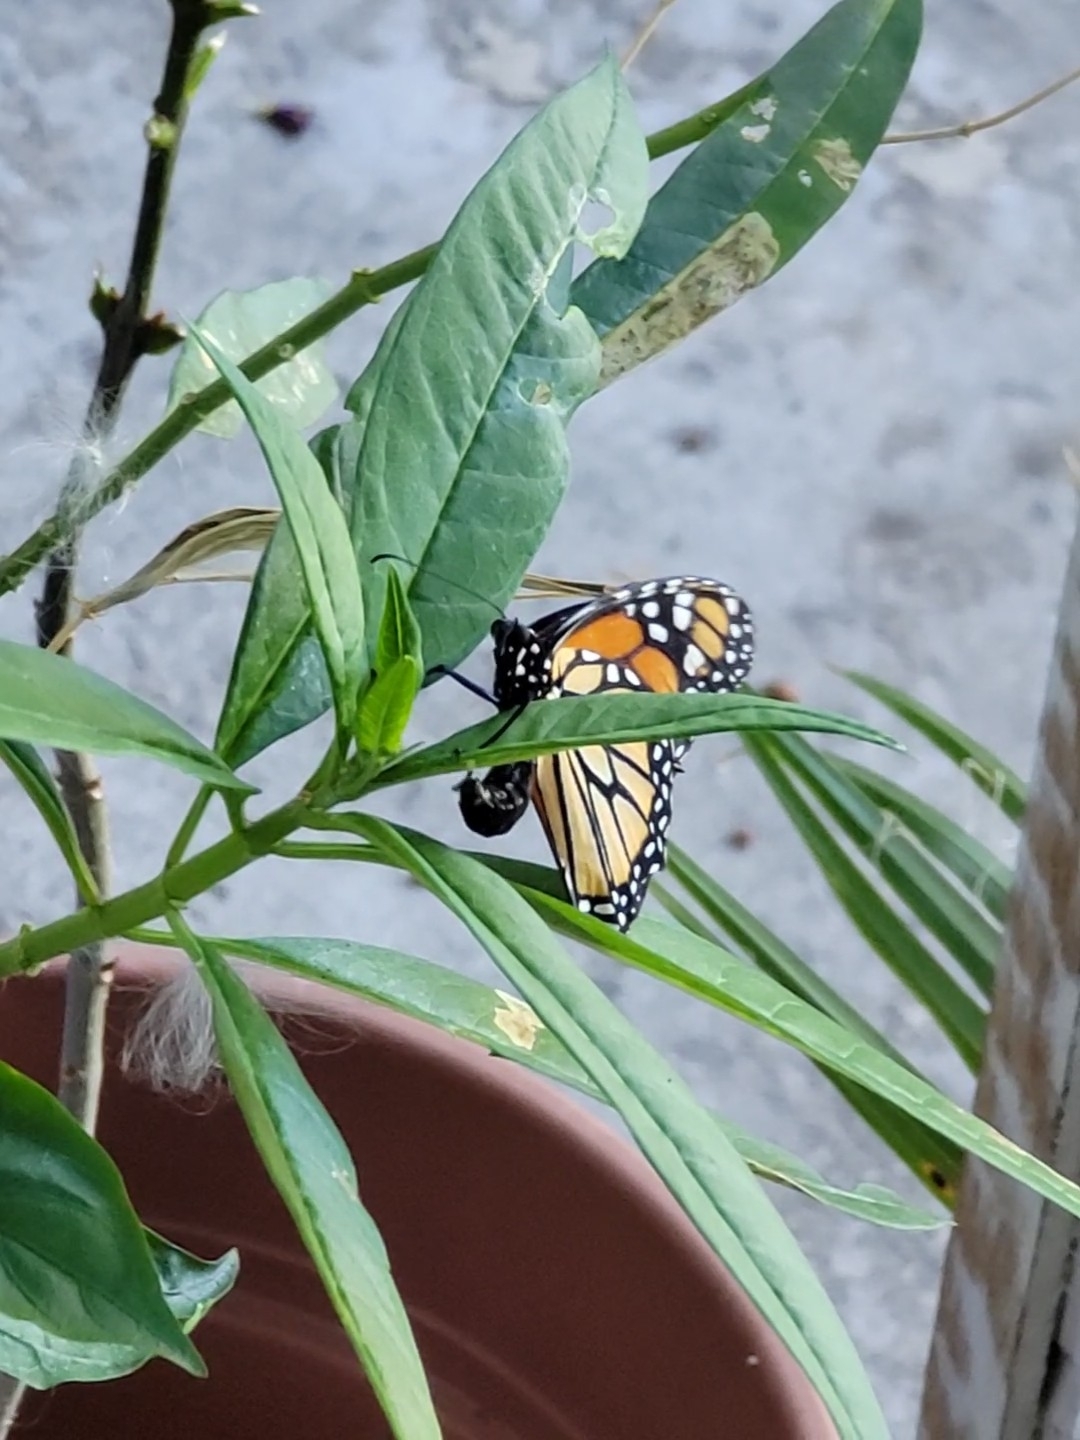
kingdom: Animalia
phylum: Arthropoda
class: Insecta
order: Lepidoptera
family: Nymphalidae
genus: Danaus
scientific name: Danaus plexippus
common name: Monarch
